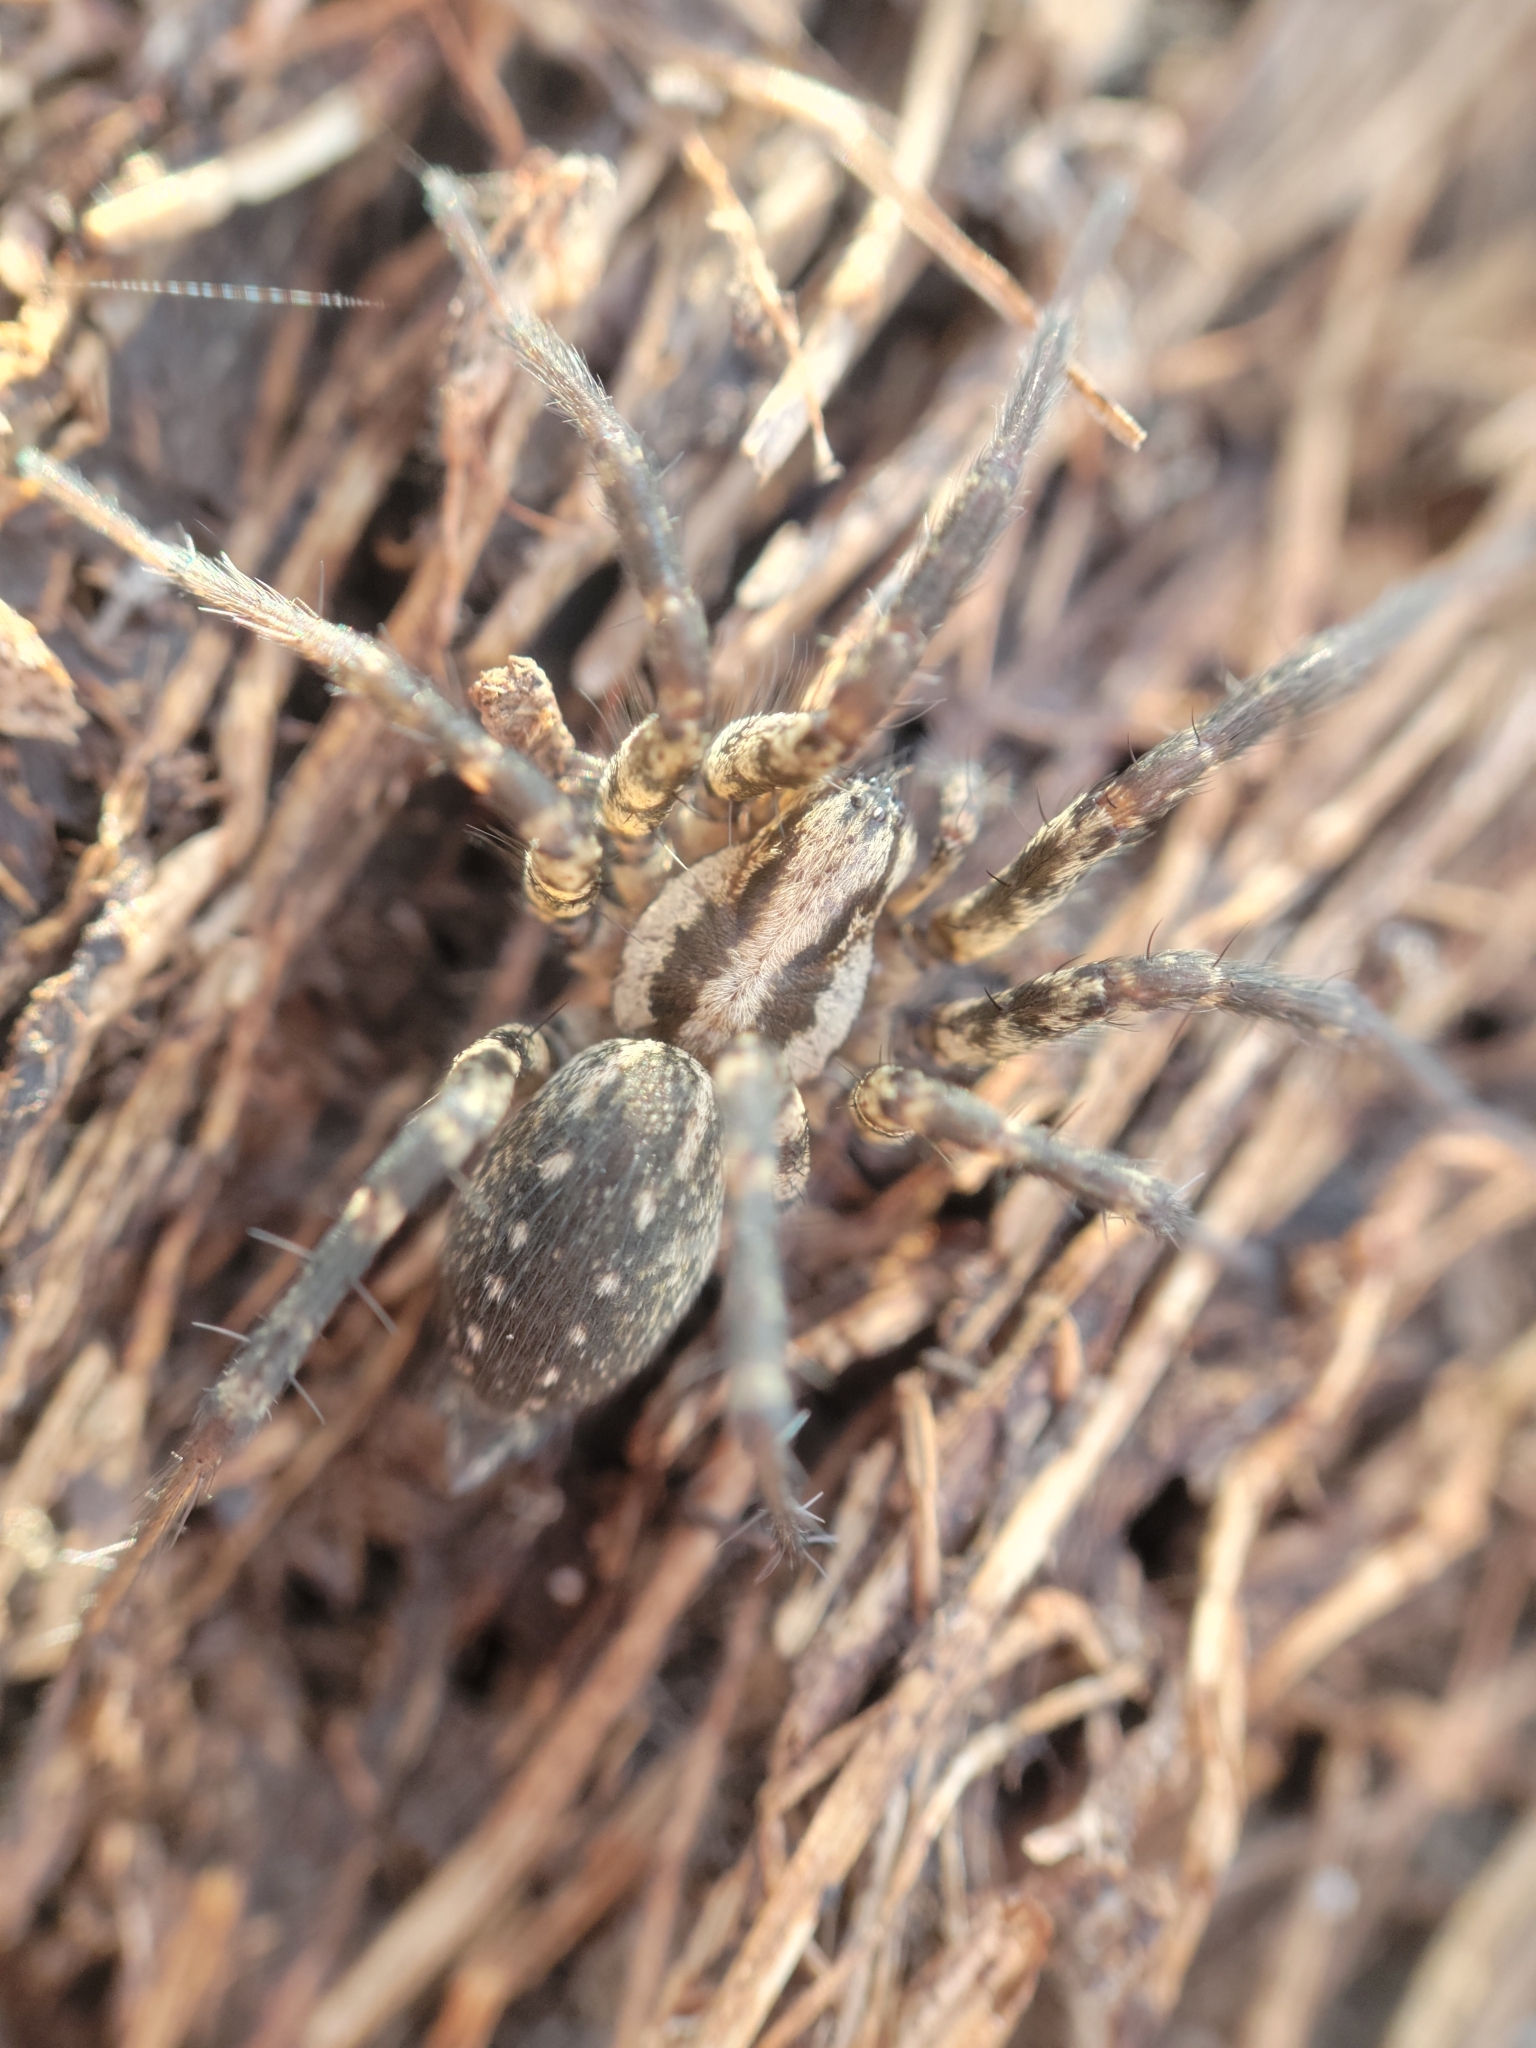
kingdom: Animalia
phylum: Arthropoda
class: Arachnida
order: Araneae
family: Agelenidae
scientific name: Agelenidae
